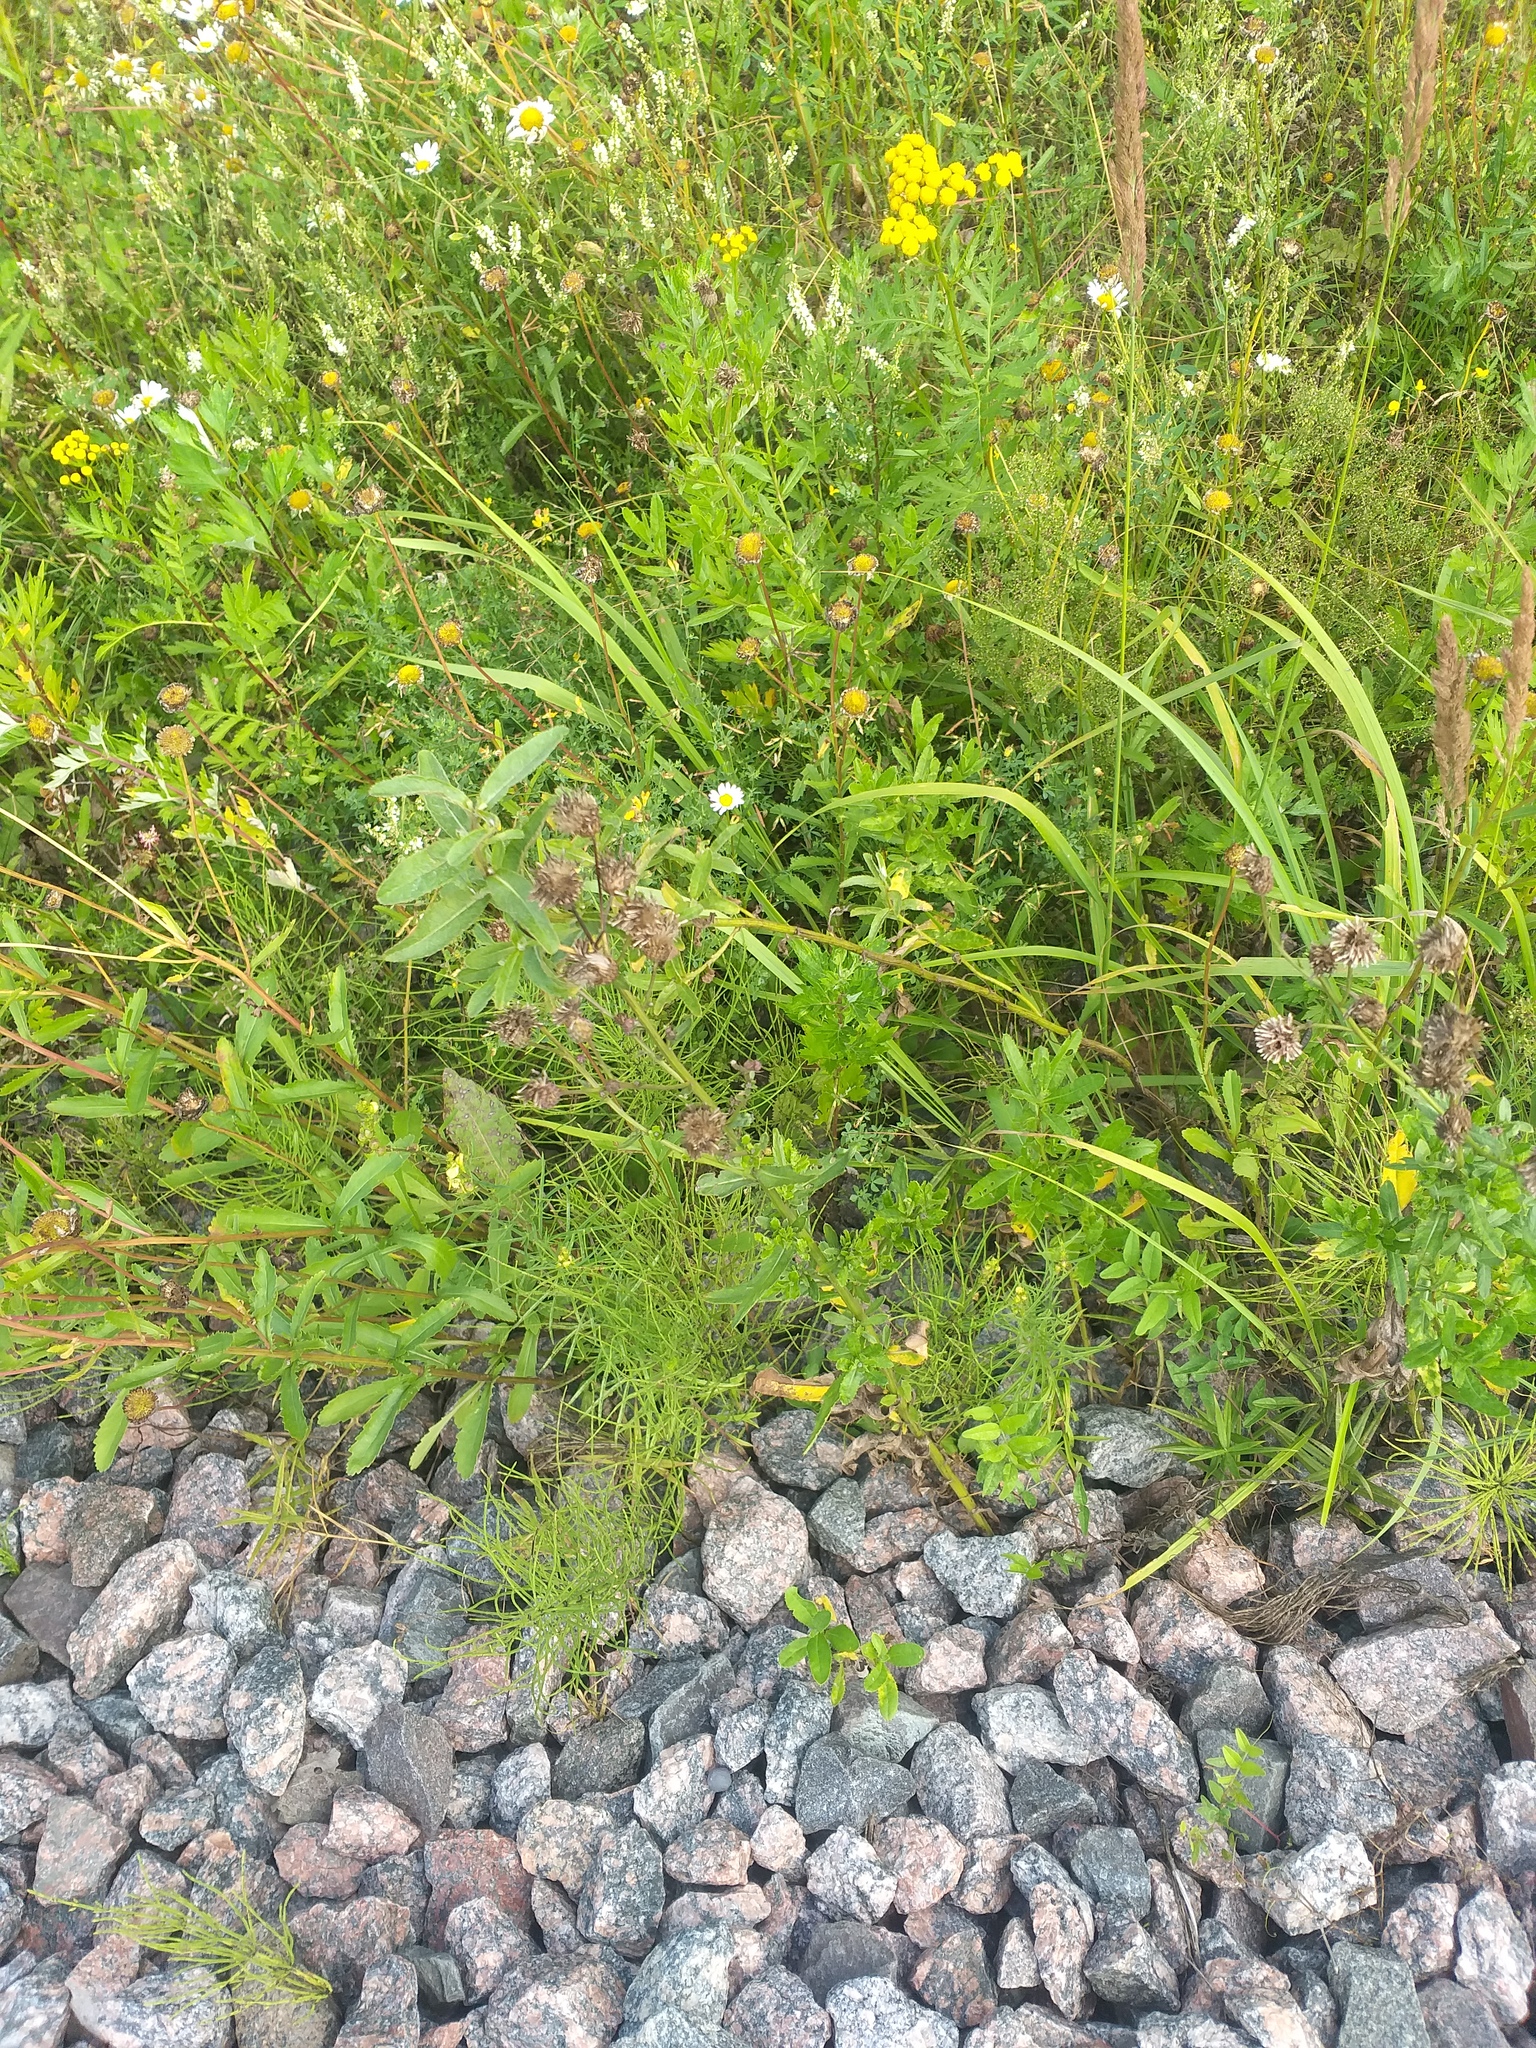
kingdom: Plantae
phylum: Tracheophyta
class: Magnoliopsida
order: Asterales
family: Asteraceae
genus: Cirsium
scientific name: Cirsium arvense
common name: Creeping thistle
